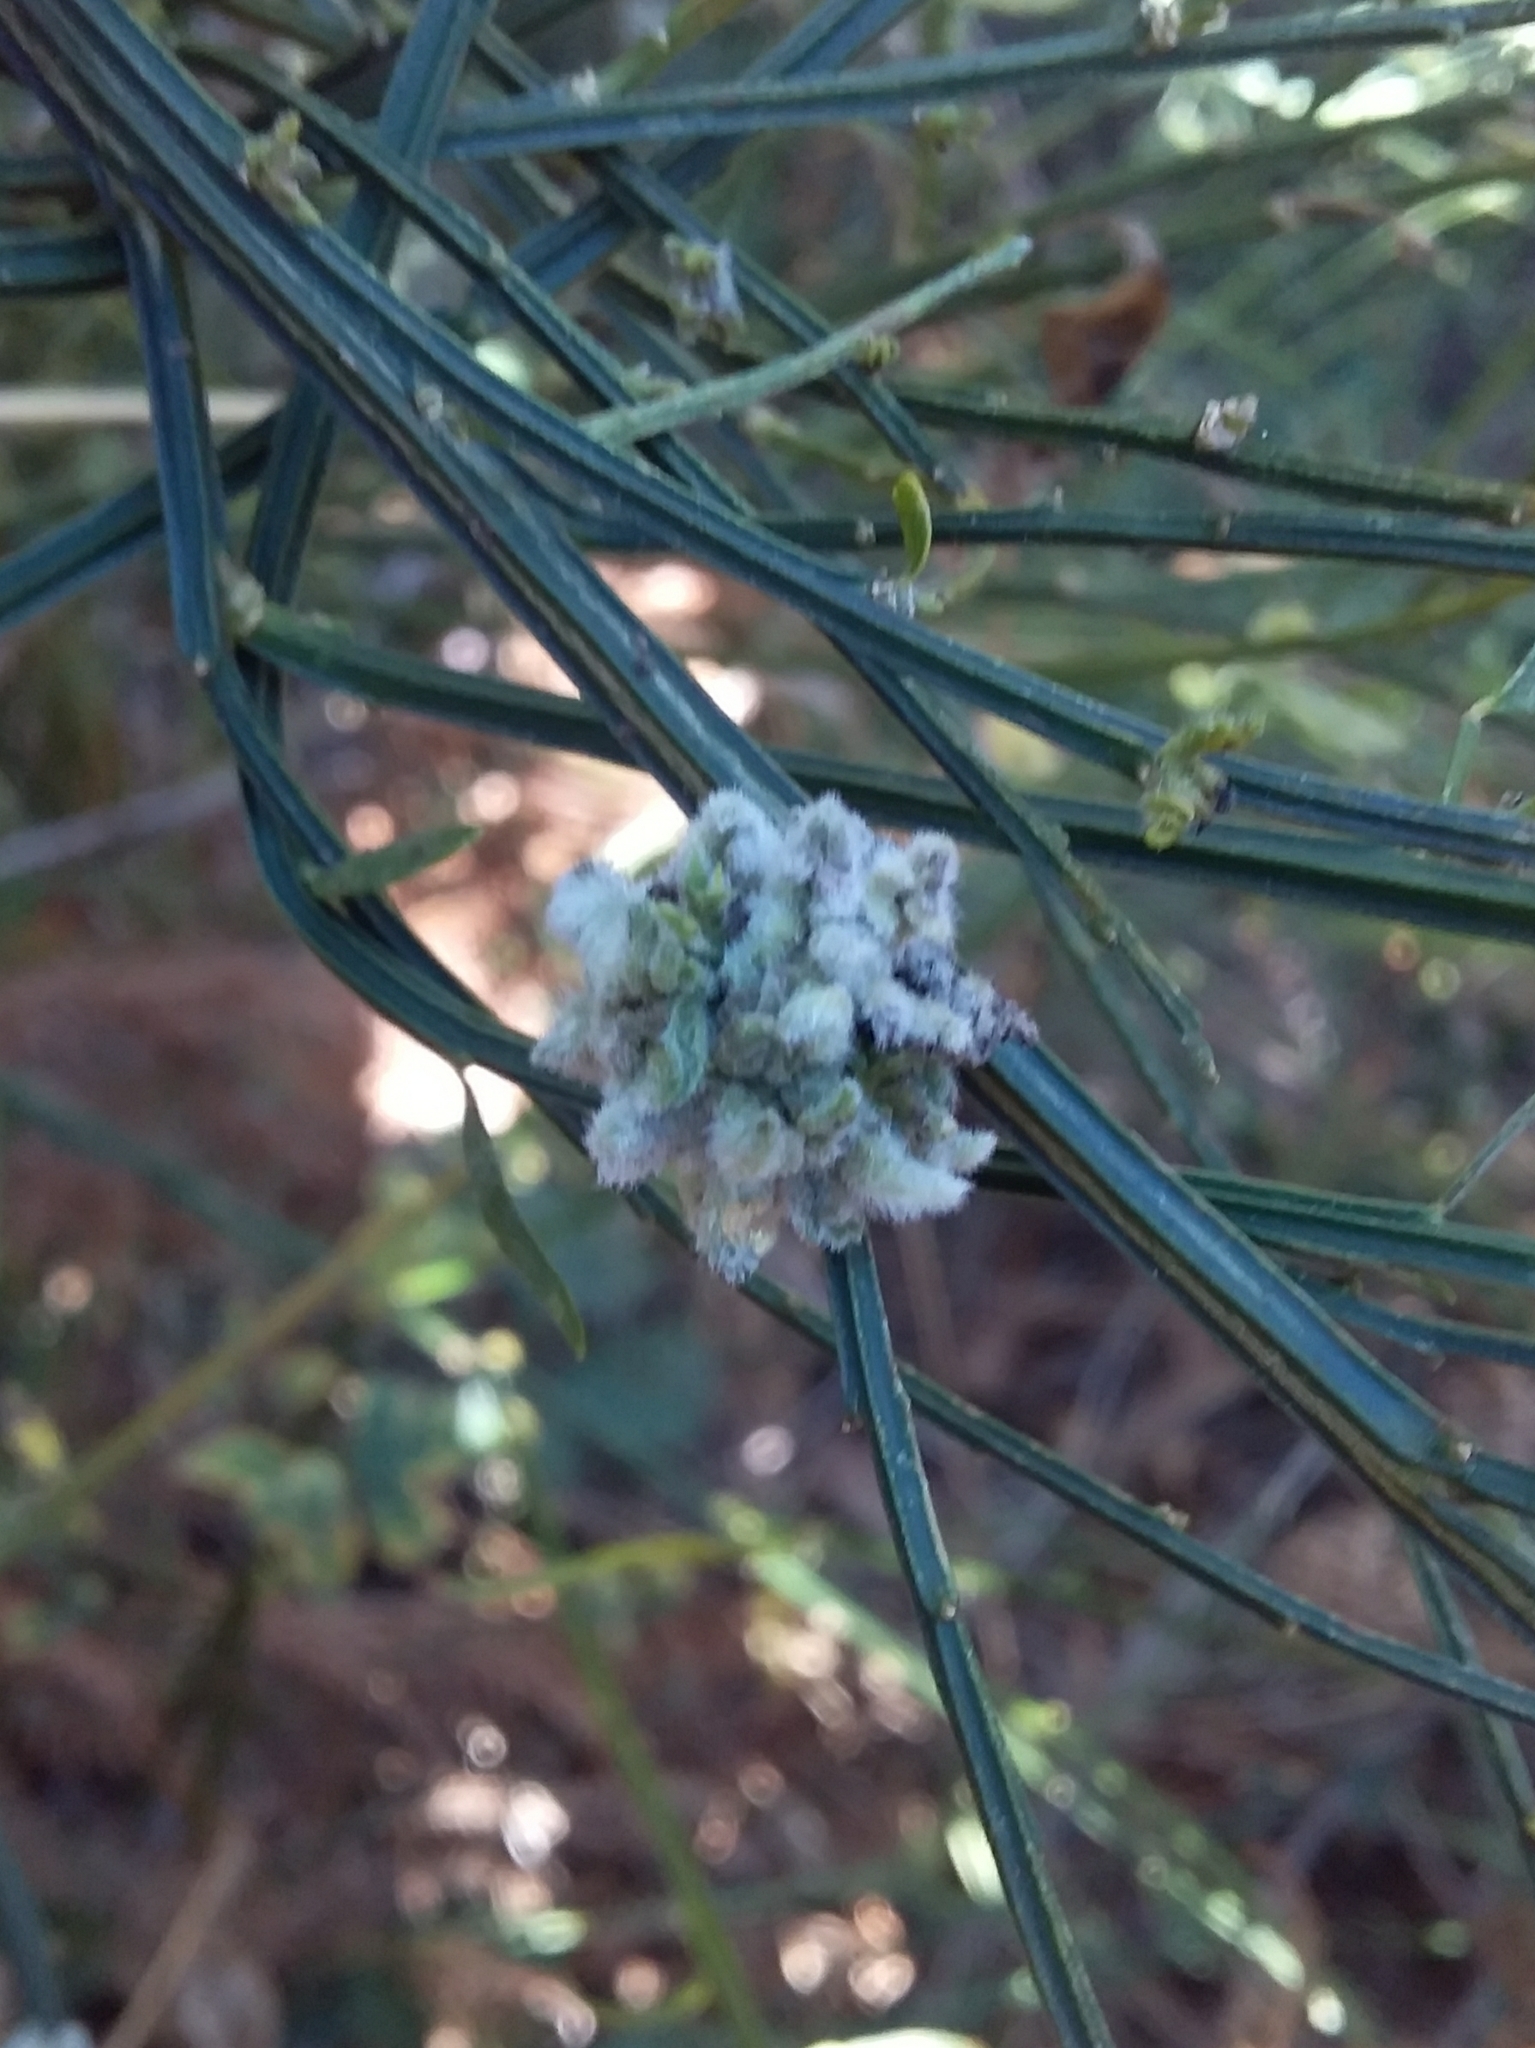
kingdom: Animalia
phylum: Arthropoda
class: Arachnida
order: Trombidiformes
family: Eriophyidae
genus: Aceria
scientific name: Aceria genistae
